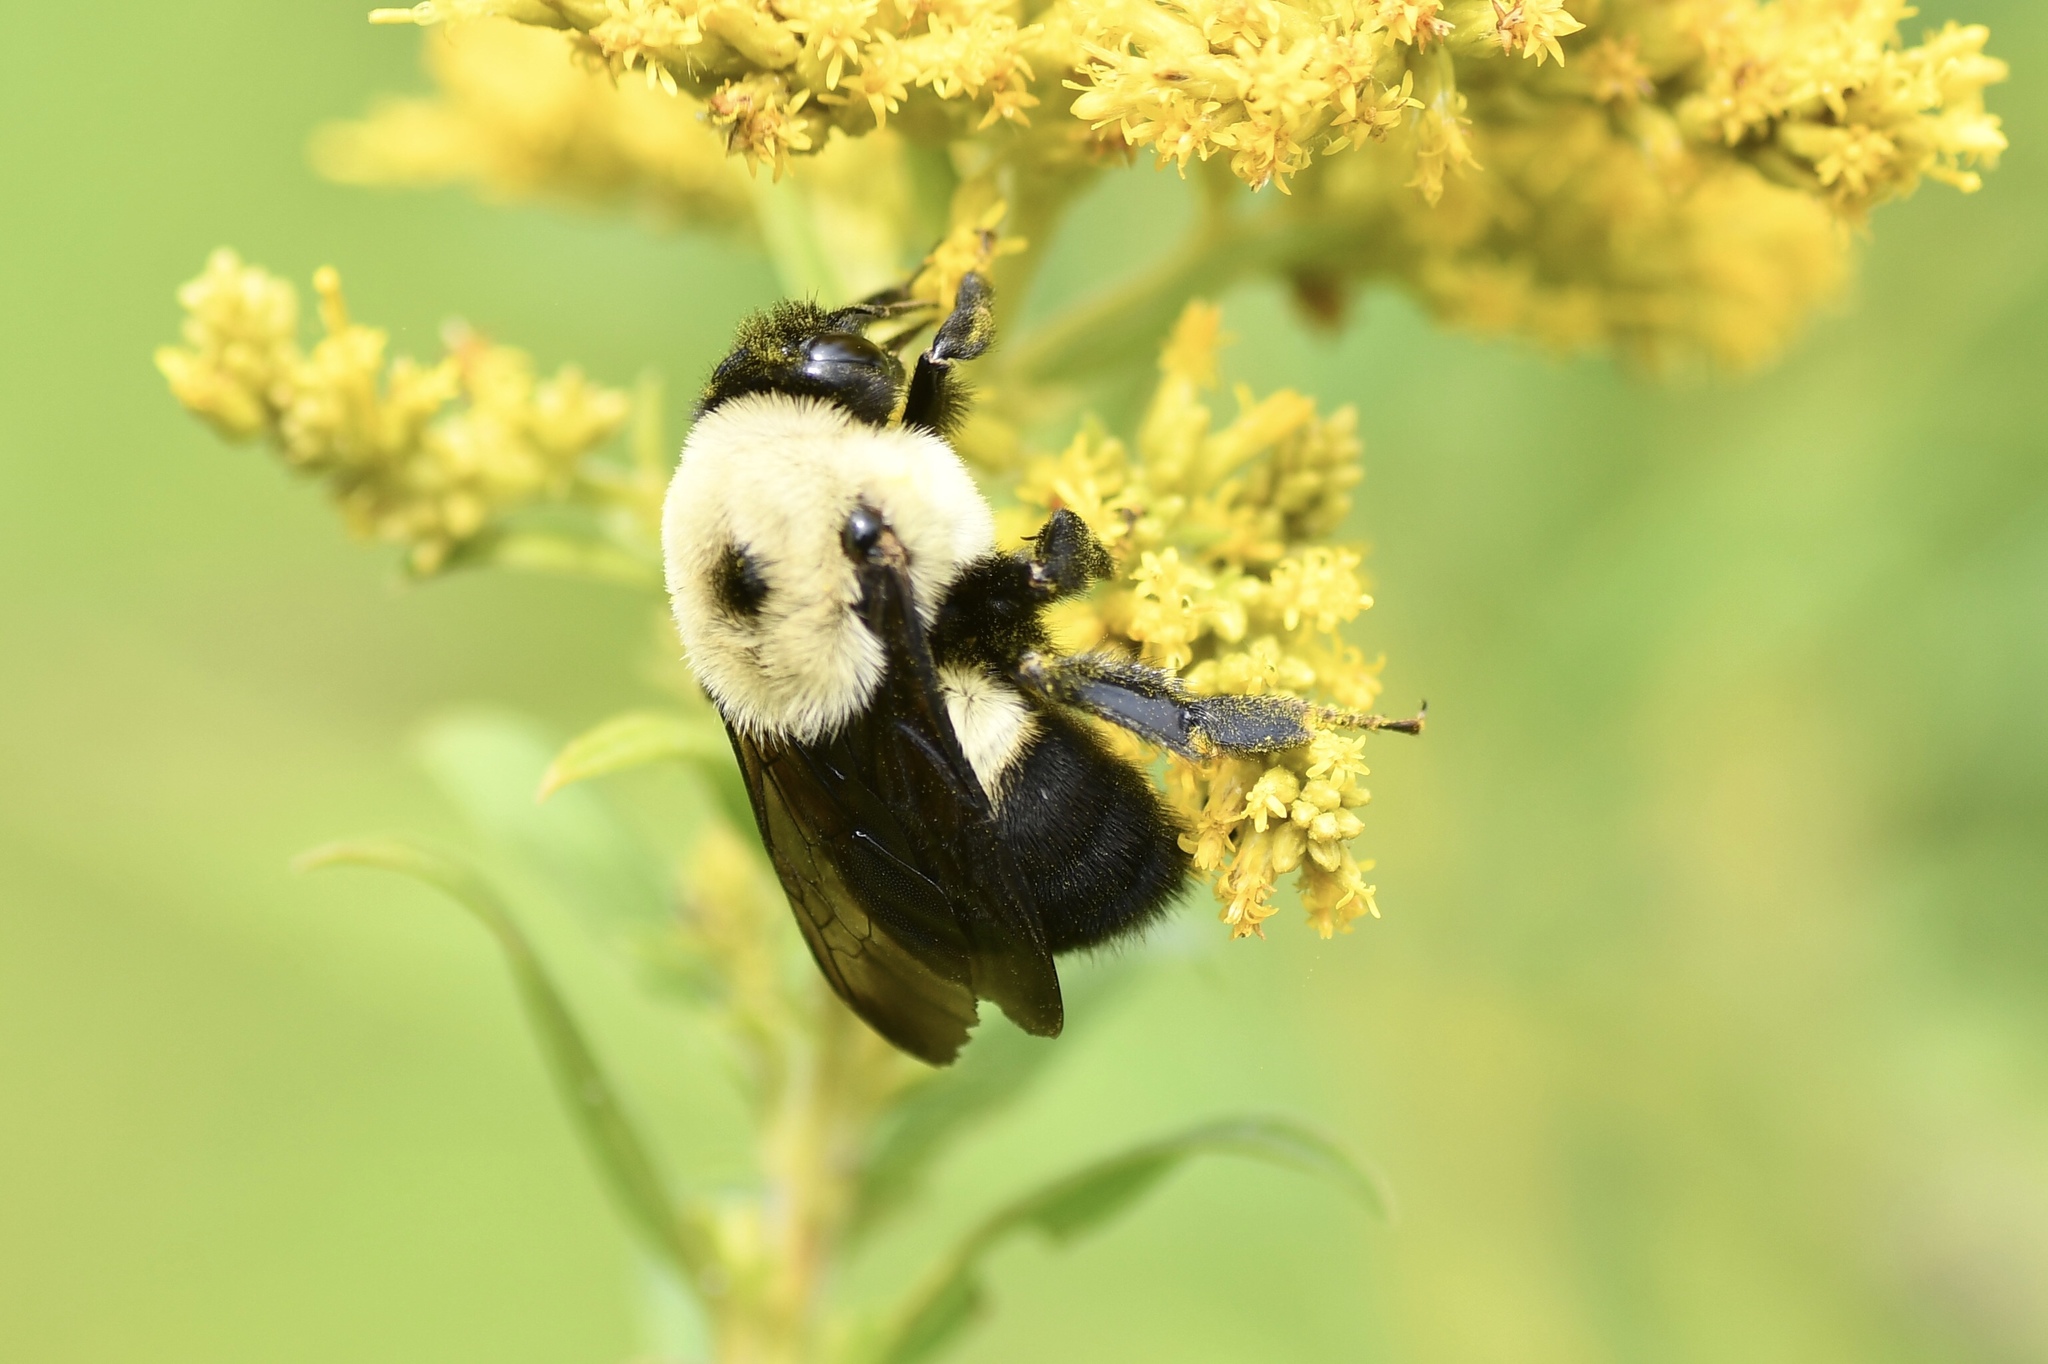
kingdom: Animalia
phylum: Arthropoda
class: Insecta
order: Hymenoptera
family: Apidae
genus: Bombus
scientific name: Bombus griseocollis
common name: Brown-belted bumble bee
